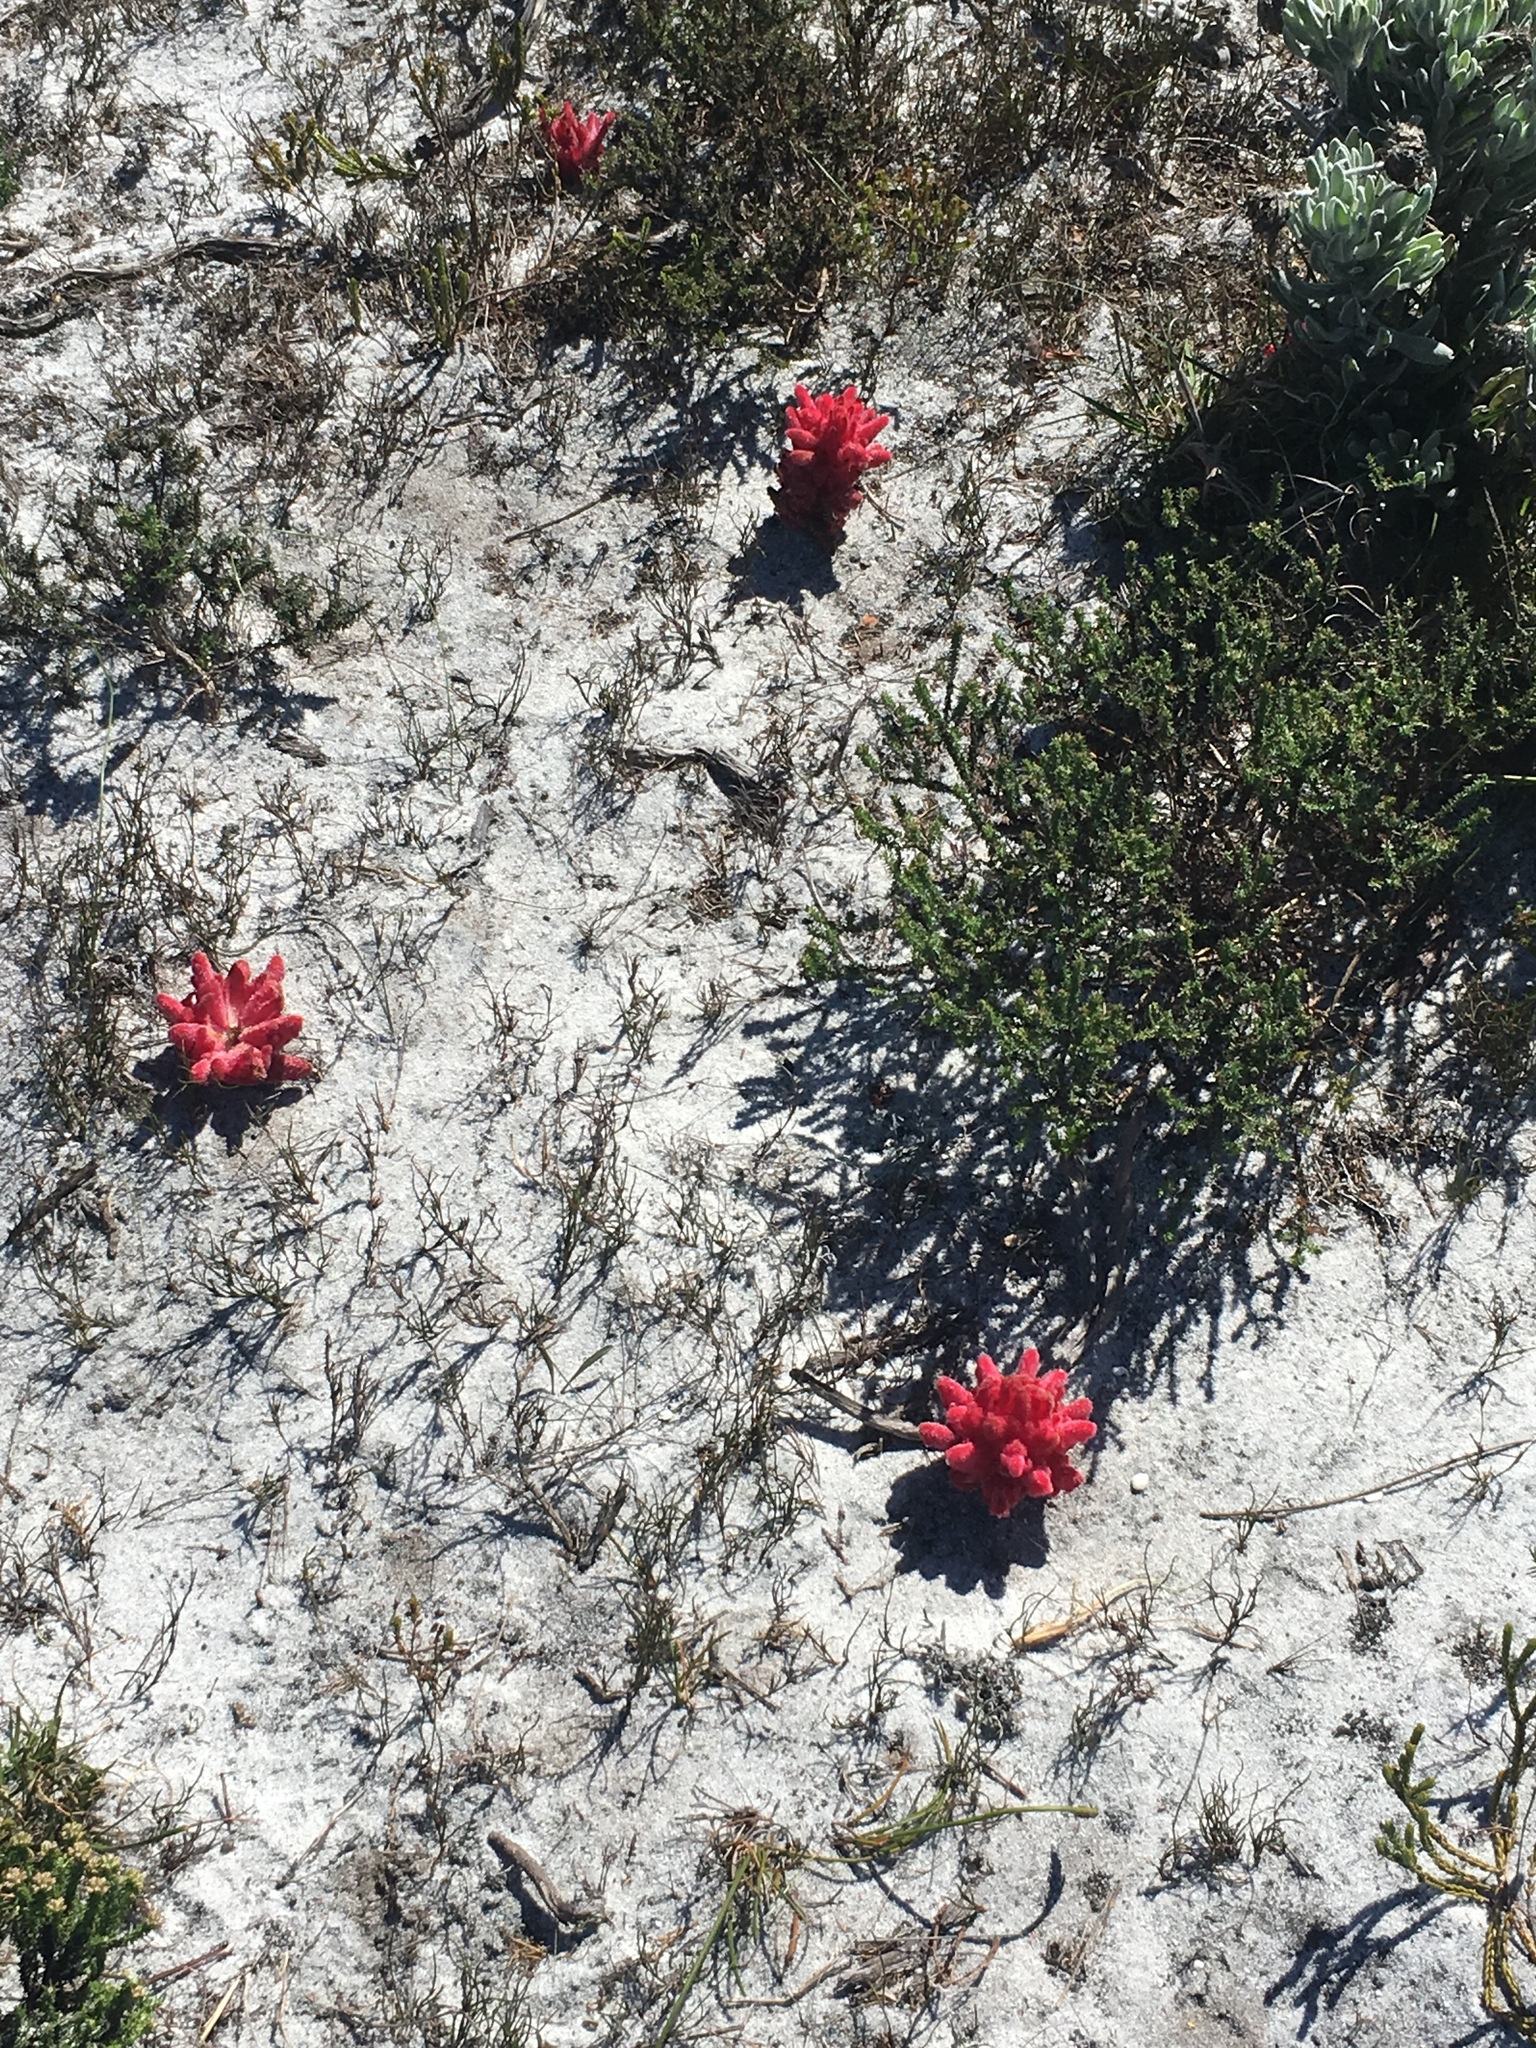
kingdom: Plantae
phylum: Tracheophyta
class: Magnoliopsida
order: Lamiales
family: Orobanchaceae
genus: Hyobanche
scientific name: Hyobanche sanguinea
